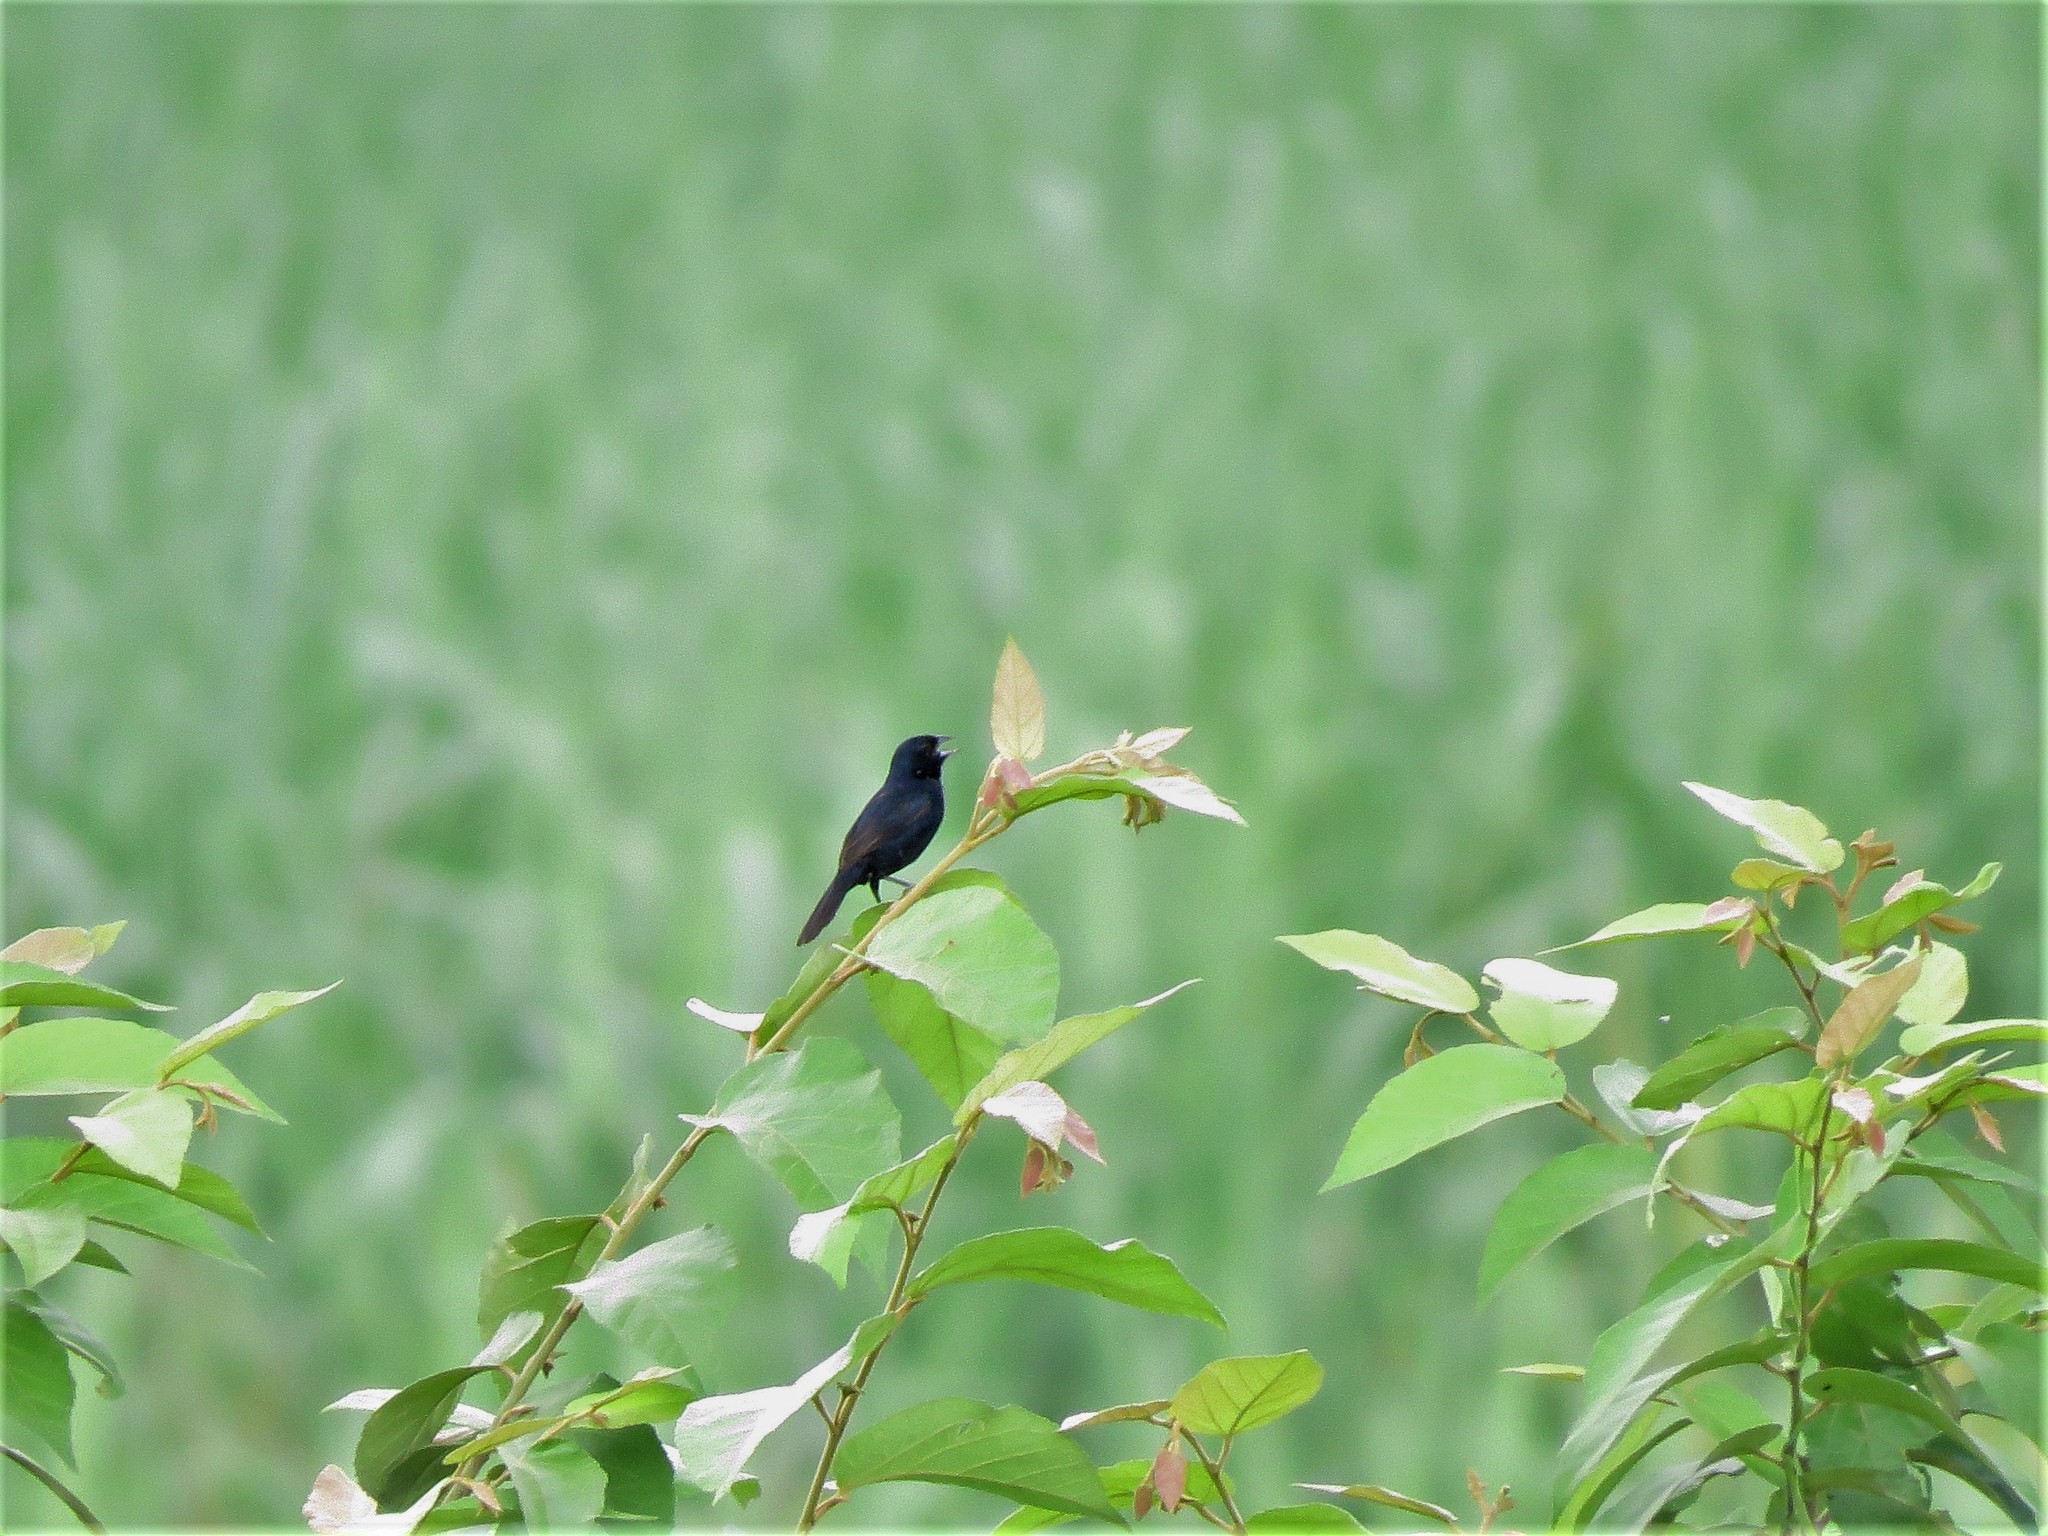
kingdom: Animalia
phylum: Chordata
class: Aves
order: Passeriformes
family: Thraupidae
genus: Volatinia
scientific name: Volatinia jacarina
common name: Blue-black grassquit
